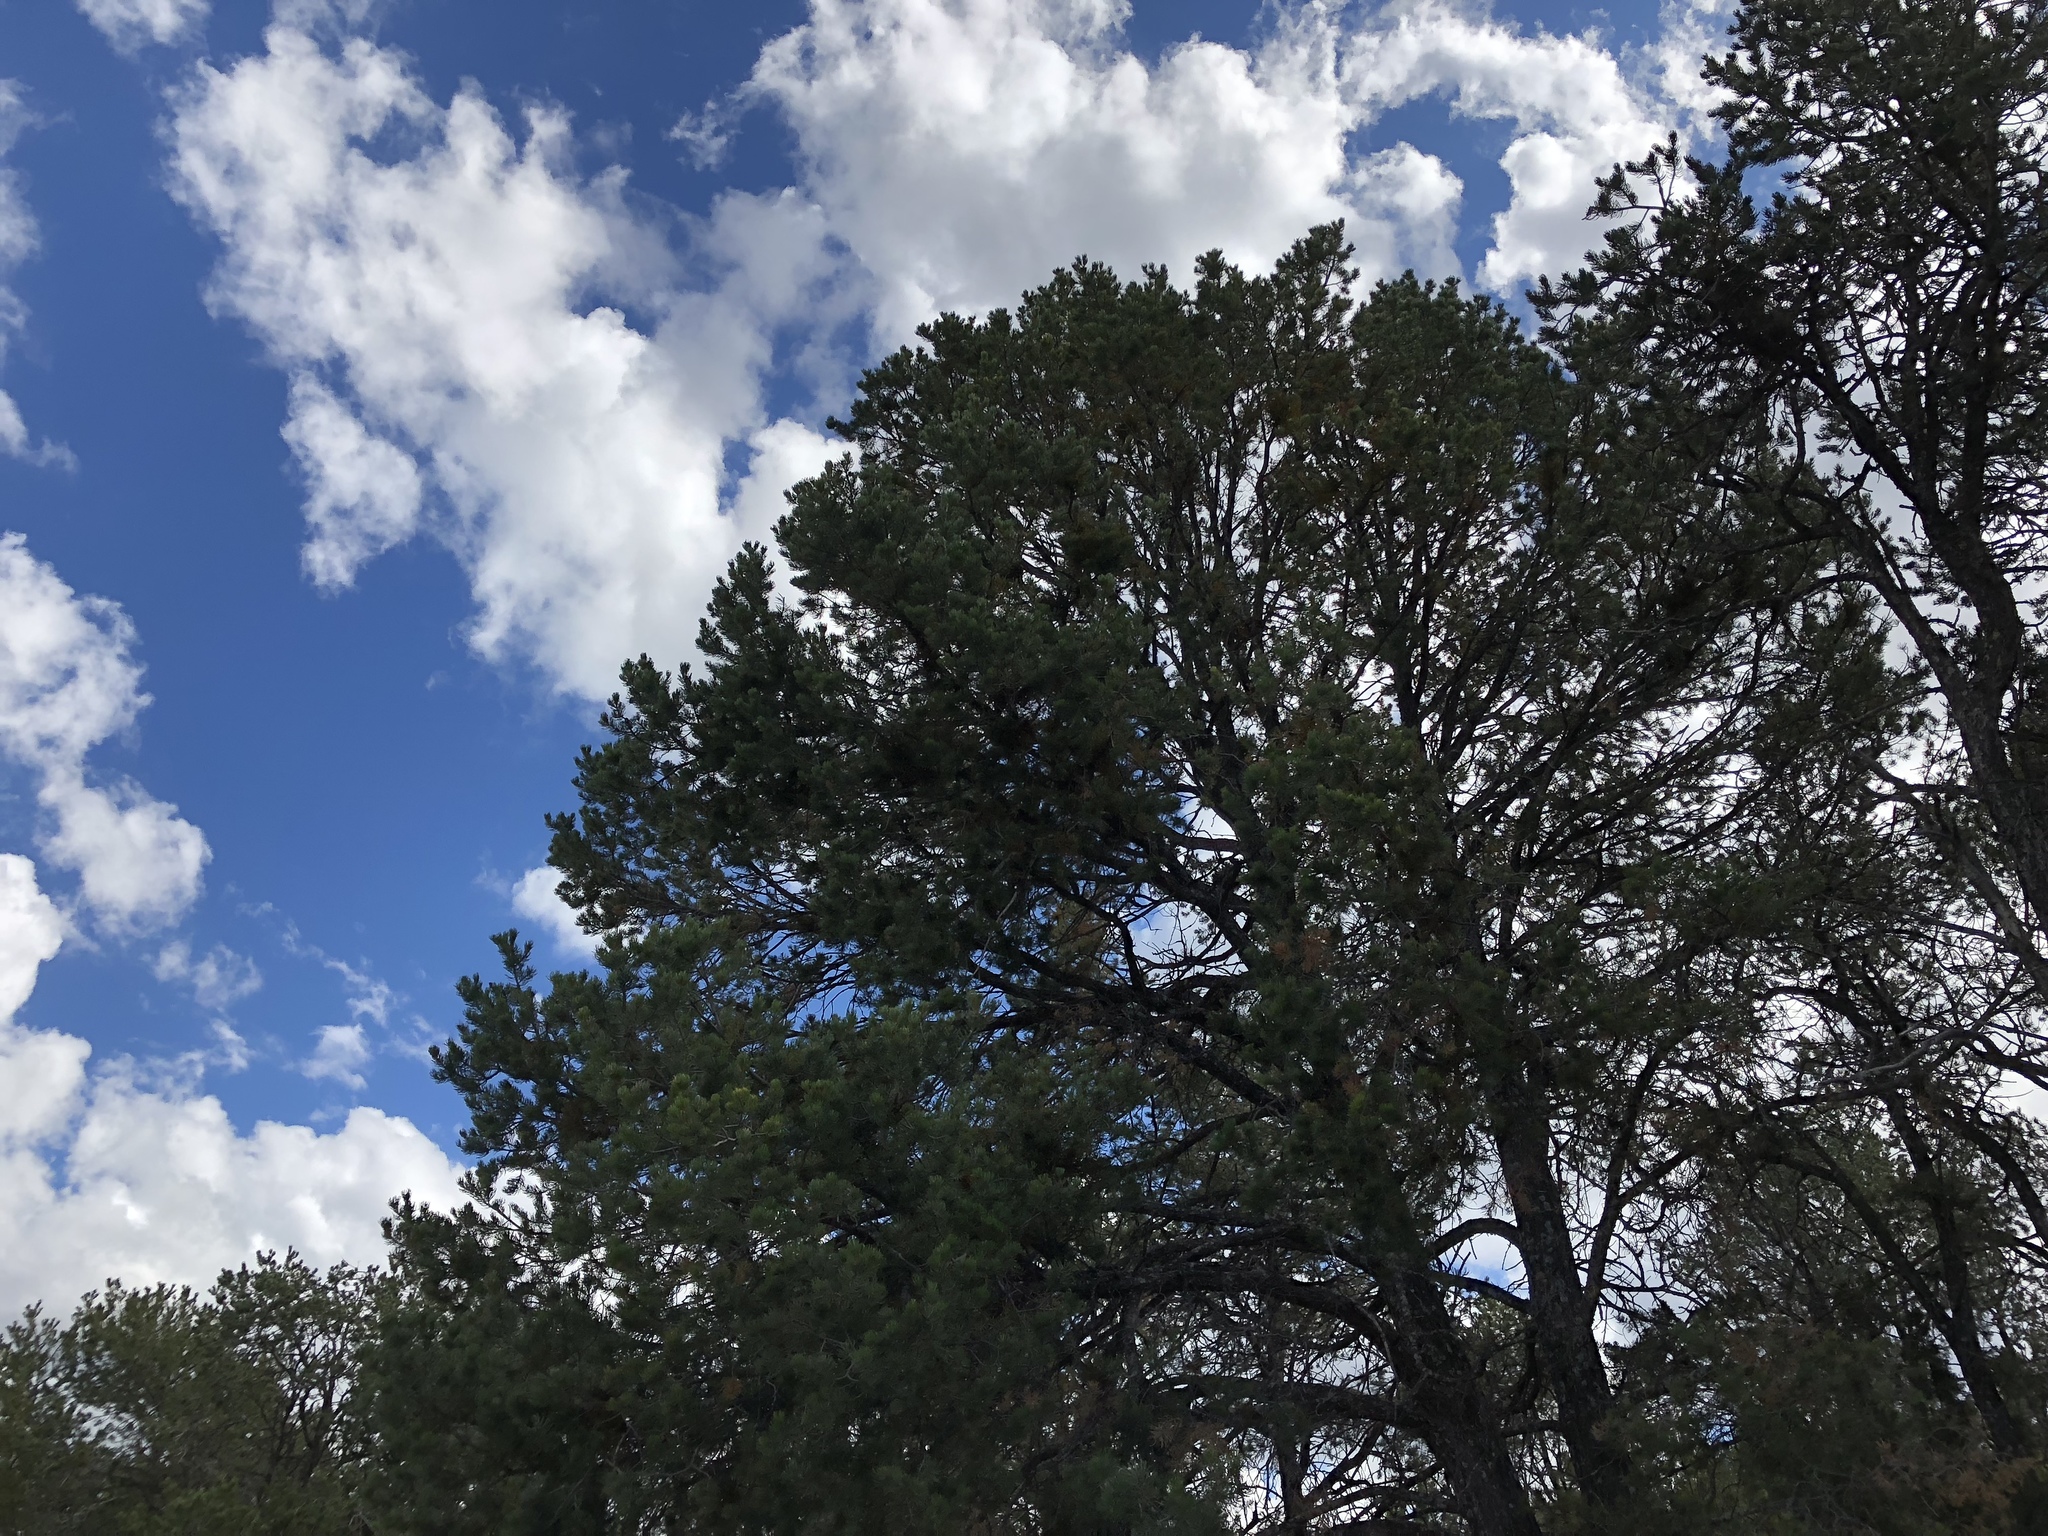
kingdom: Plantae
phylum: Tracheophyta
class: Pinopsida
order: Pinales
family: Pinaceae
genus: Pinus
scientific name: Pinus edulis
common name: Colorado pinyon
